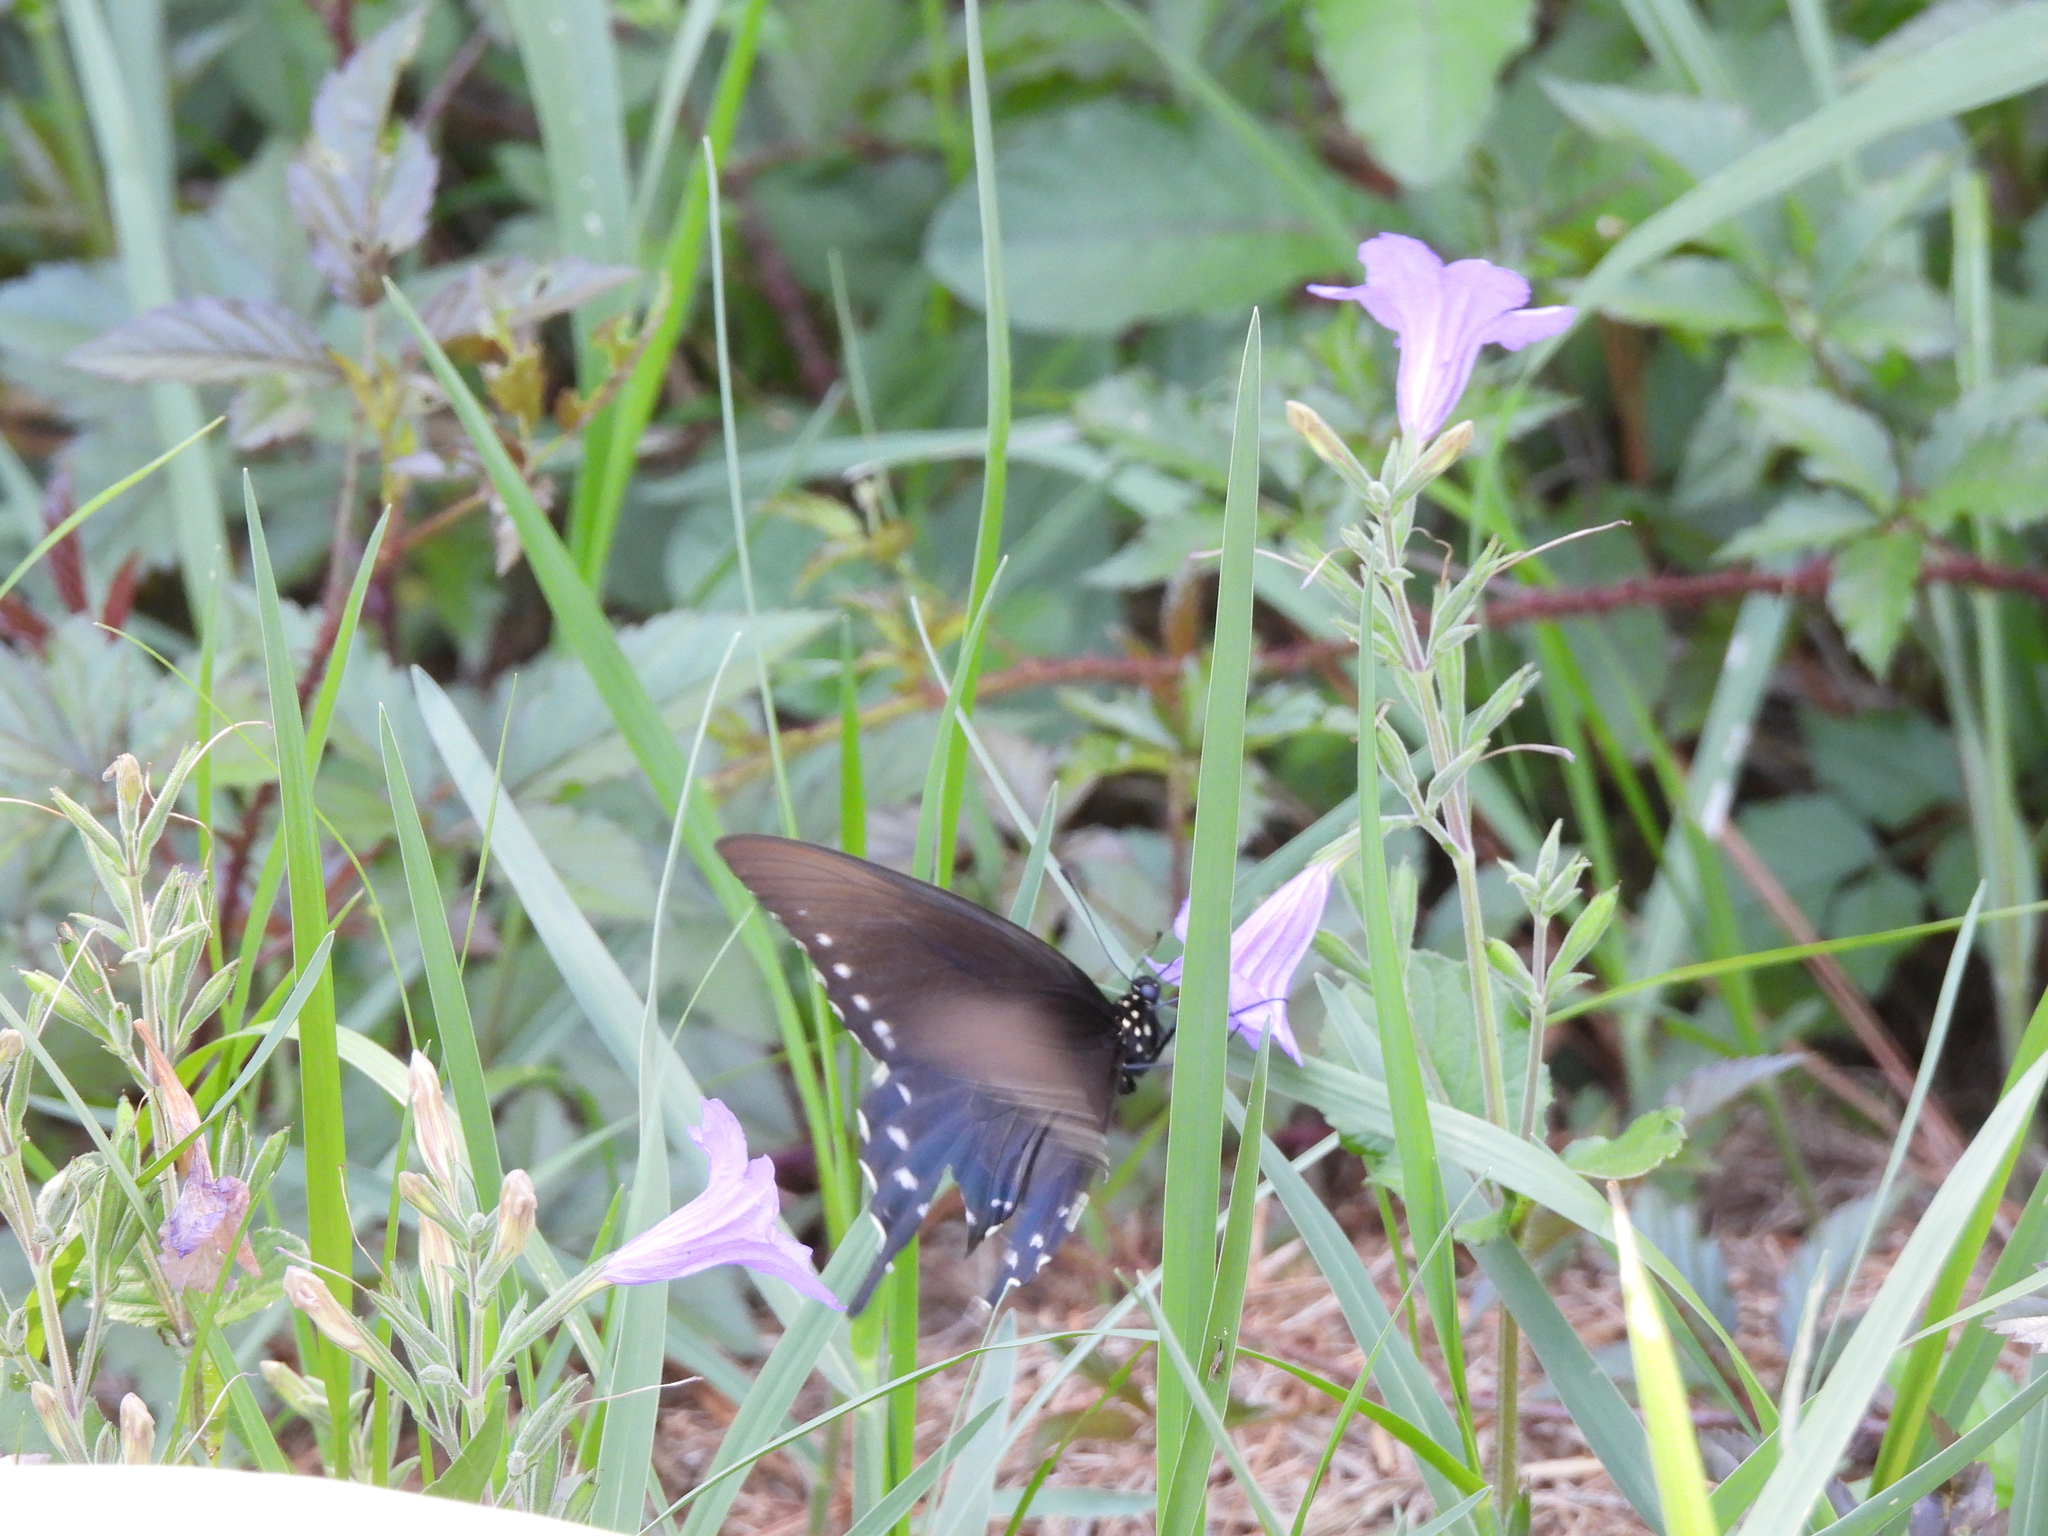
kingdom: Animalia
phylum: Arthropoda
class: Insecta
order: Lepidoptera
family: Papilionidae
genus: Battus
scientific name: Battus philenor
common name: Pipevine swallowtail
